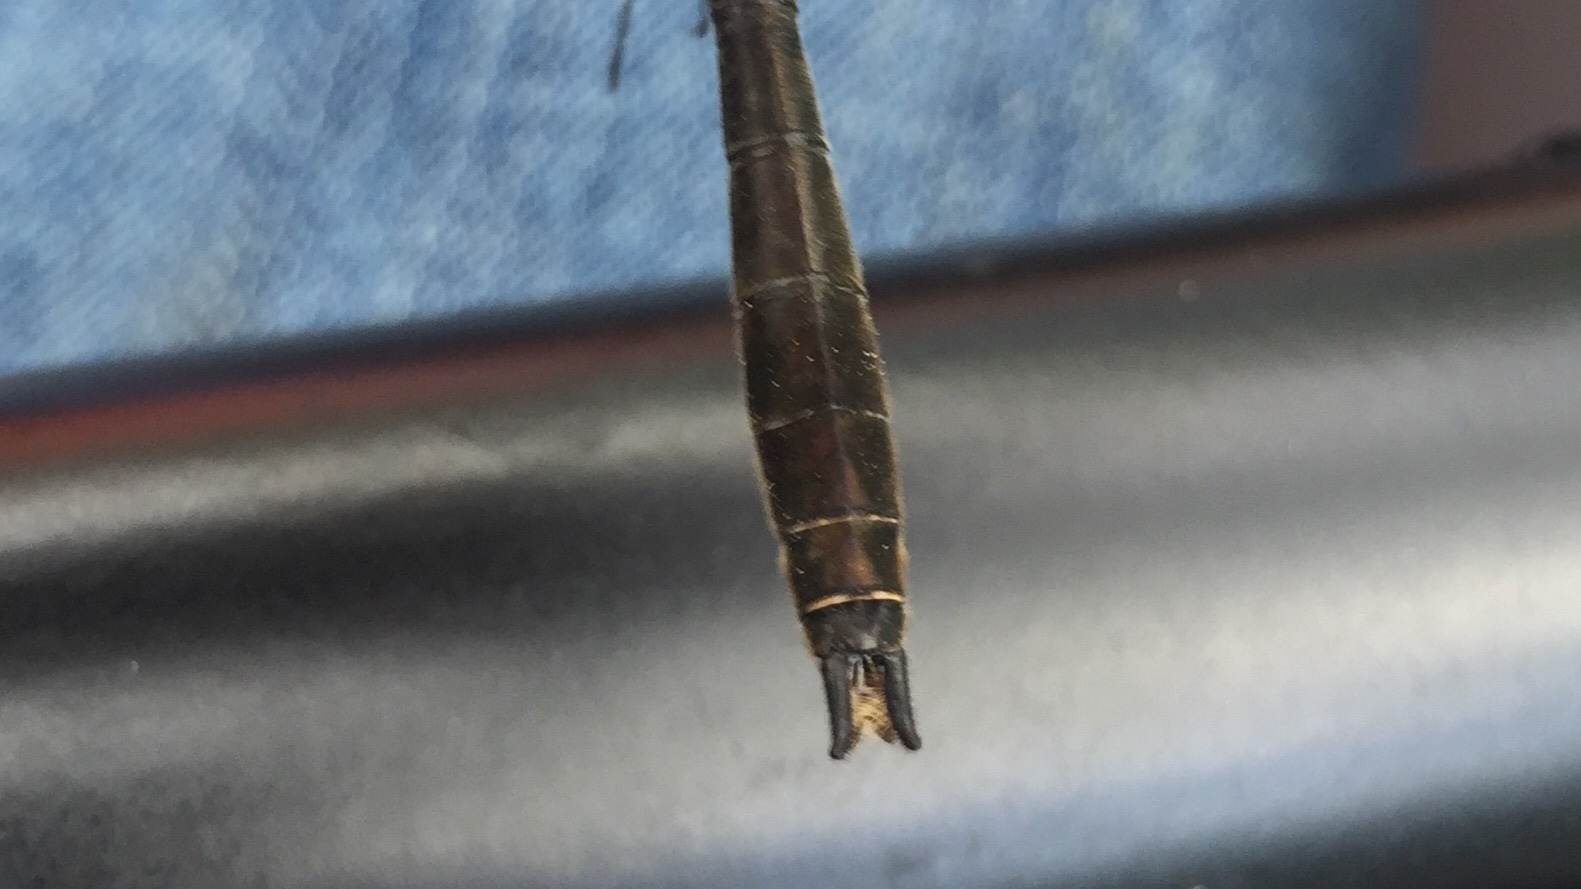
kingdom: Animalia
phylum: Arthropoda
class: Insecta
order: Odonata
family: Corduliidae
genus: Cordulia
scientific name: Cordulia shurtleffii
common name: American emerald
